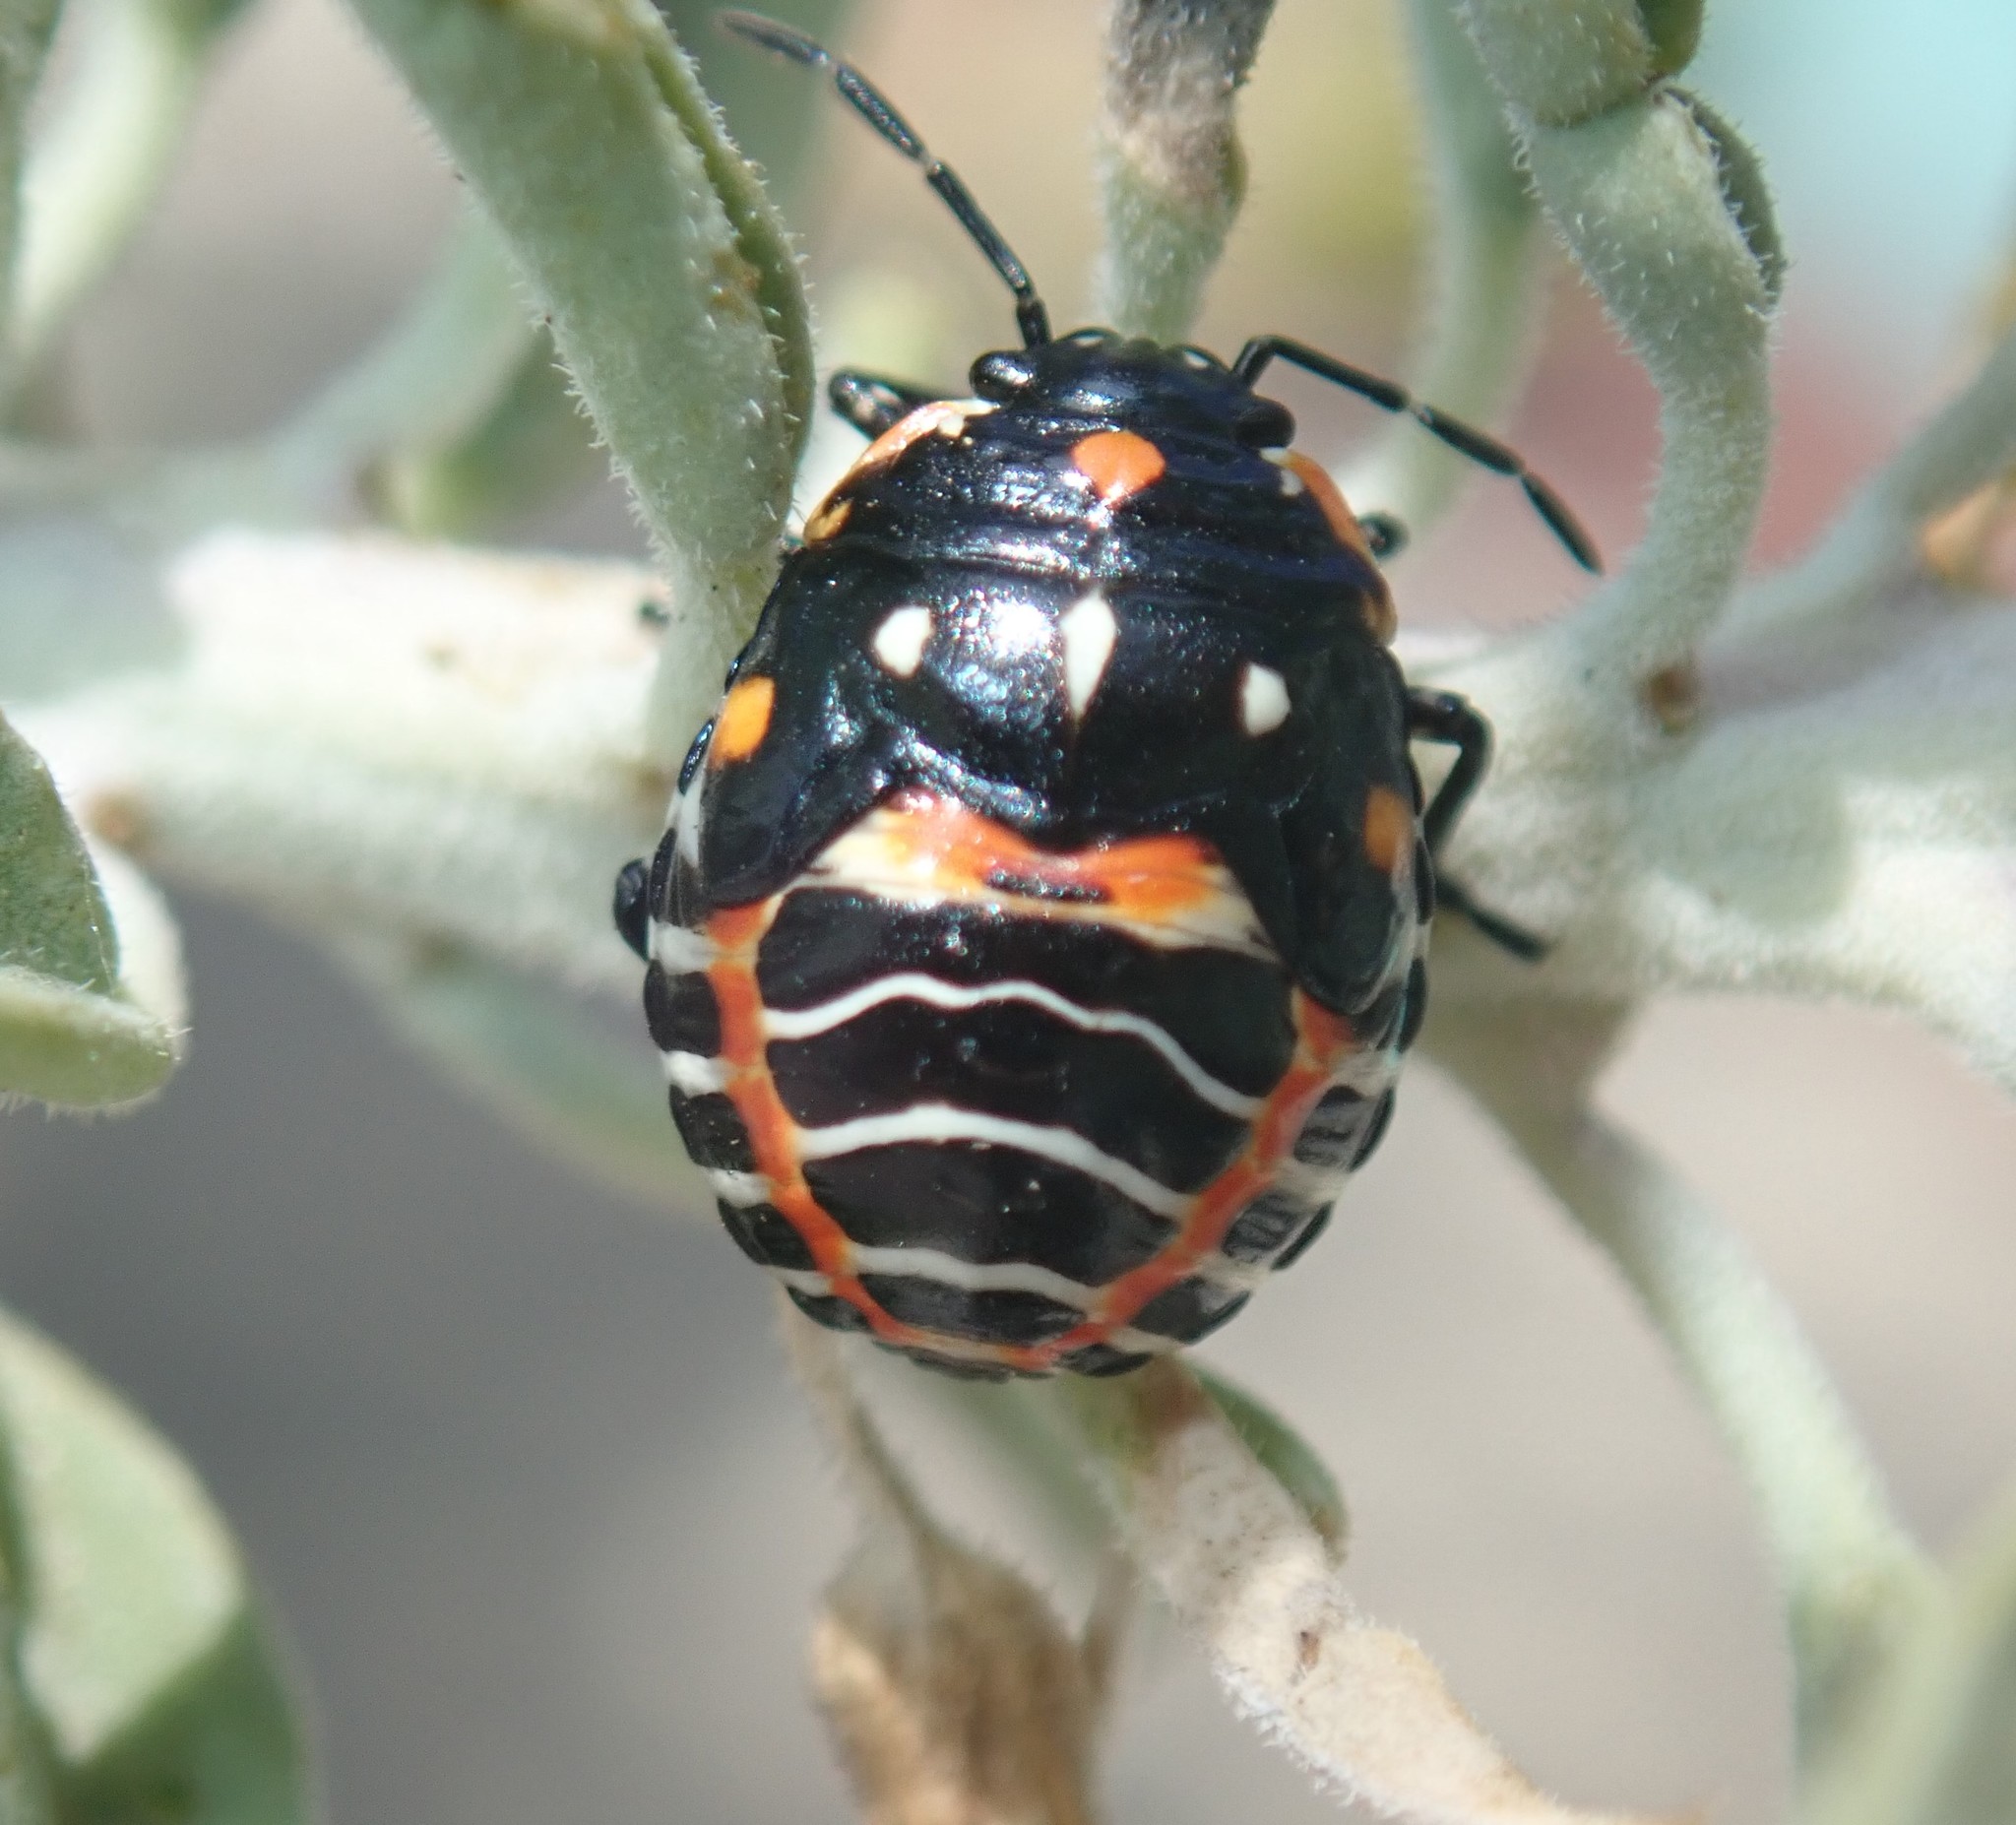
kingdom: Animalia
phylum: Arthropoda
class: Insecta
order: Hemiptera
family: Pentatomidae
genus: Murgantia
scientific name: Murgantia histrionica
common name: Harlequin bug
